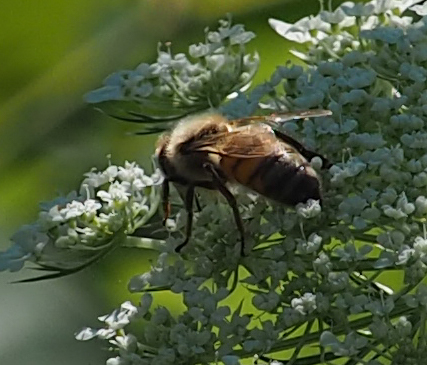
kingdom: Animalia
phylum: Arthropoda
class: Insecta
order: Hymenoptera
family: Apidae
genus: Apis
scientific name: Apis mellifera
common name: Honey bee
